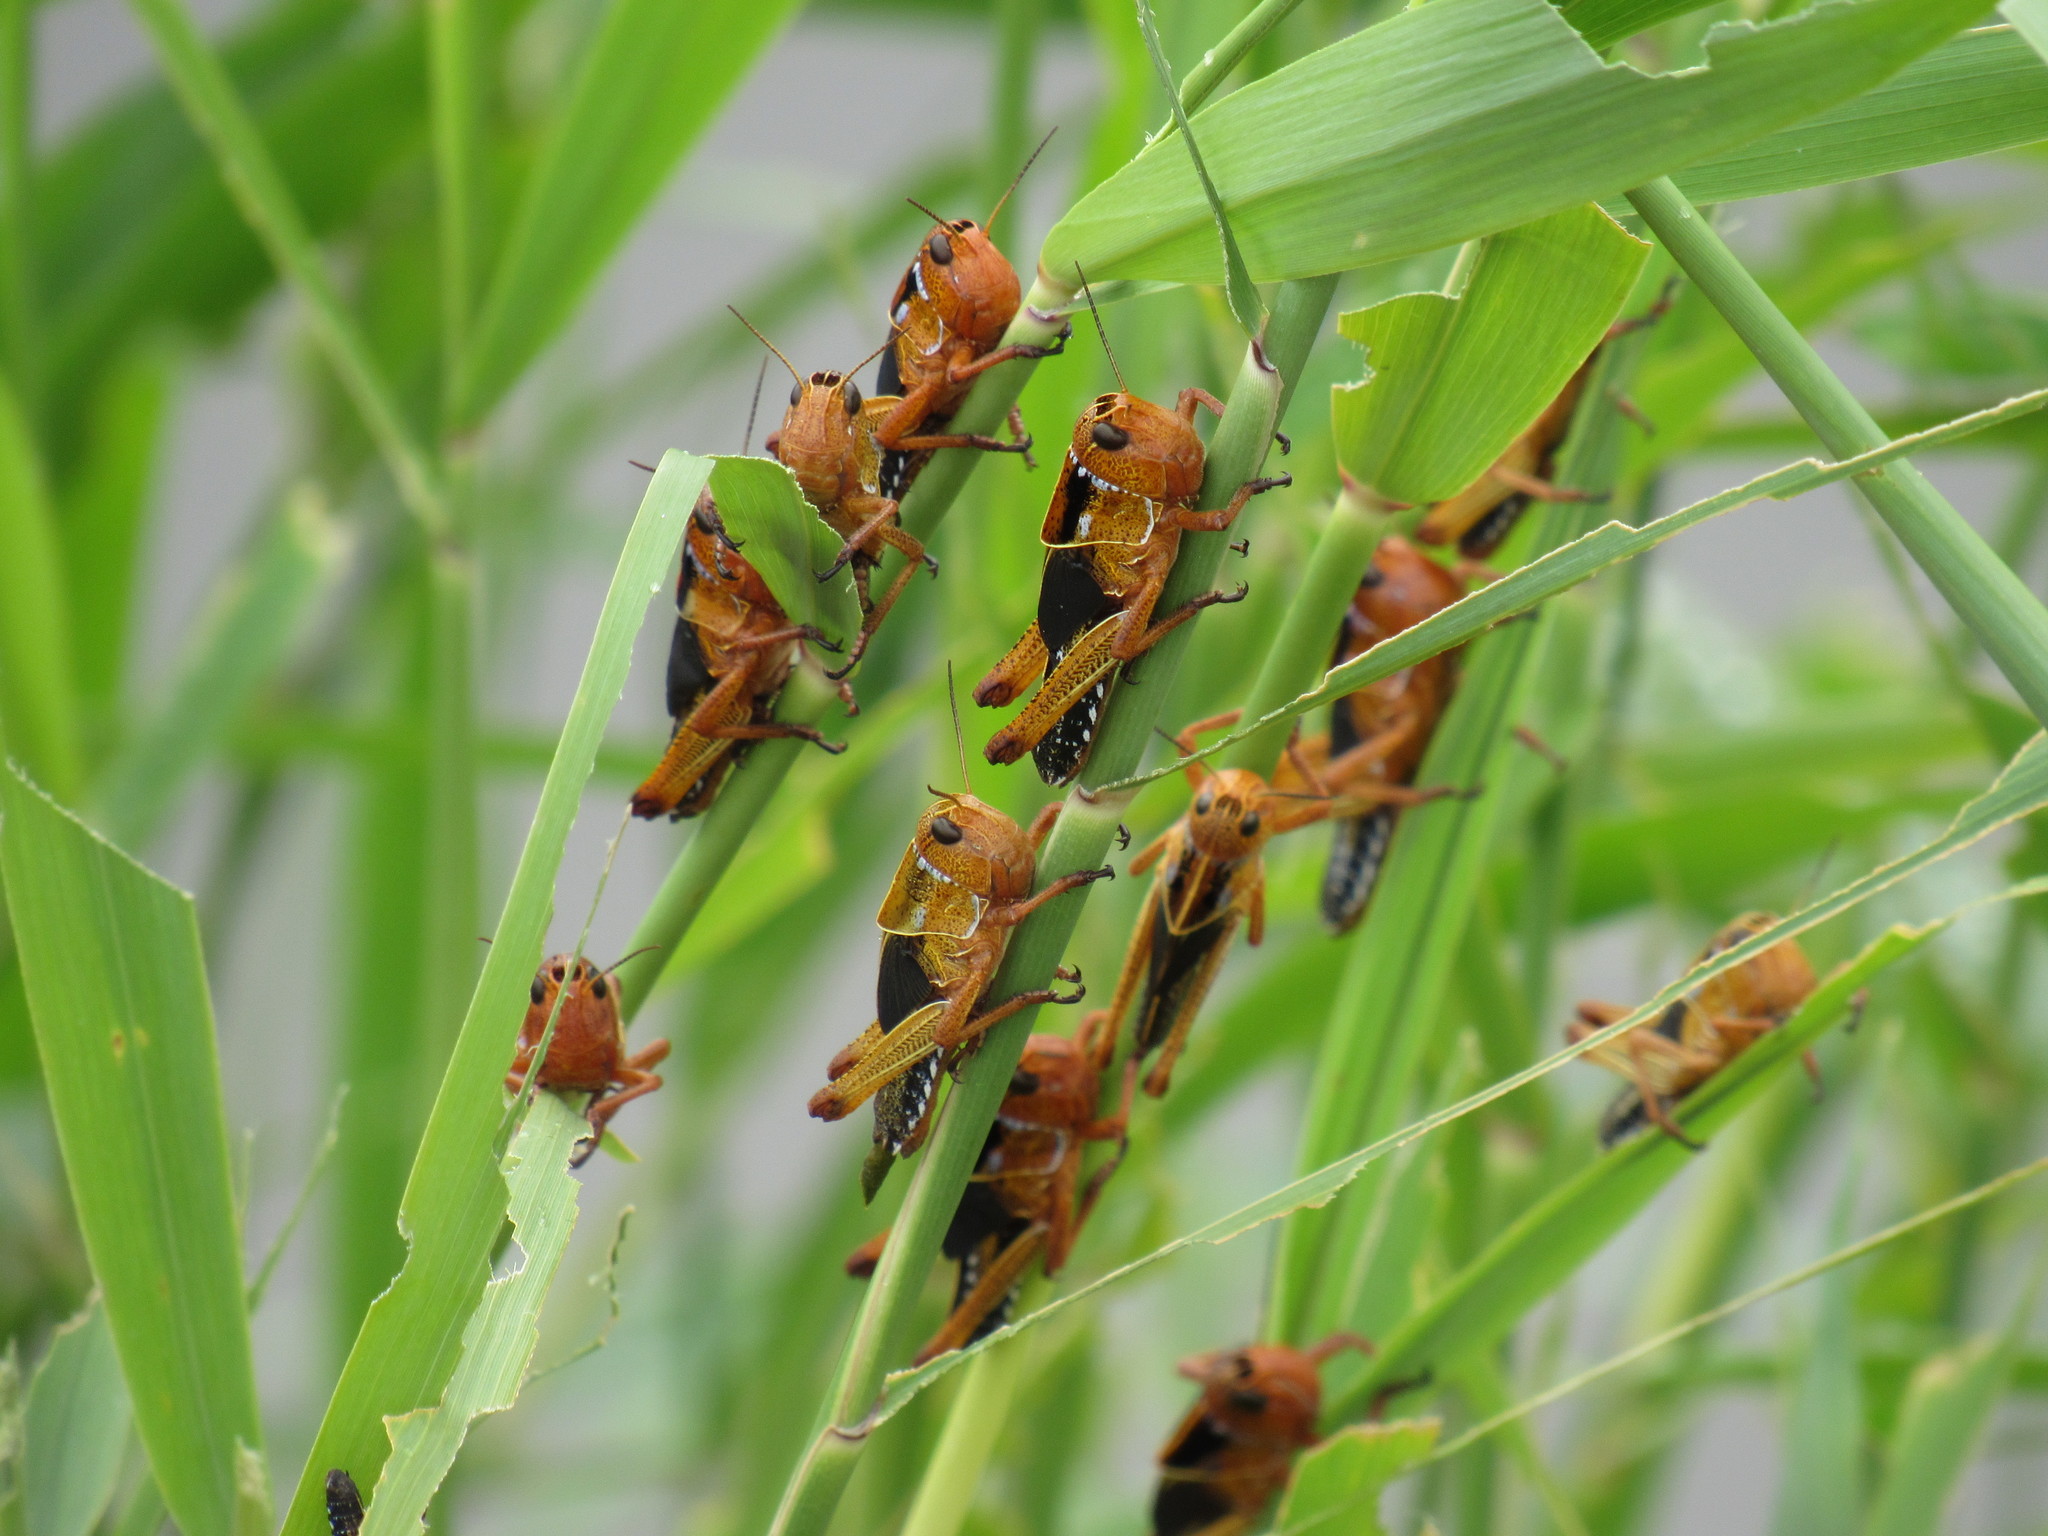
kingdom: Animalia
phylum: Arthropoda
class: Insecta
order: Orthoptera
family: Acrididae
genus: Locusta
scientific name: Locusta migratoria
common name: Migratory locust
